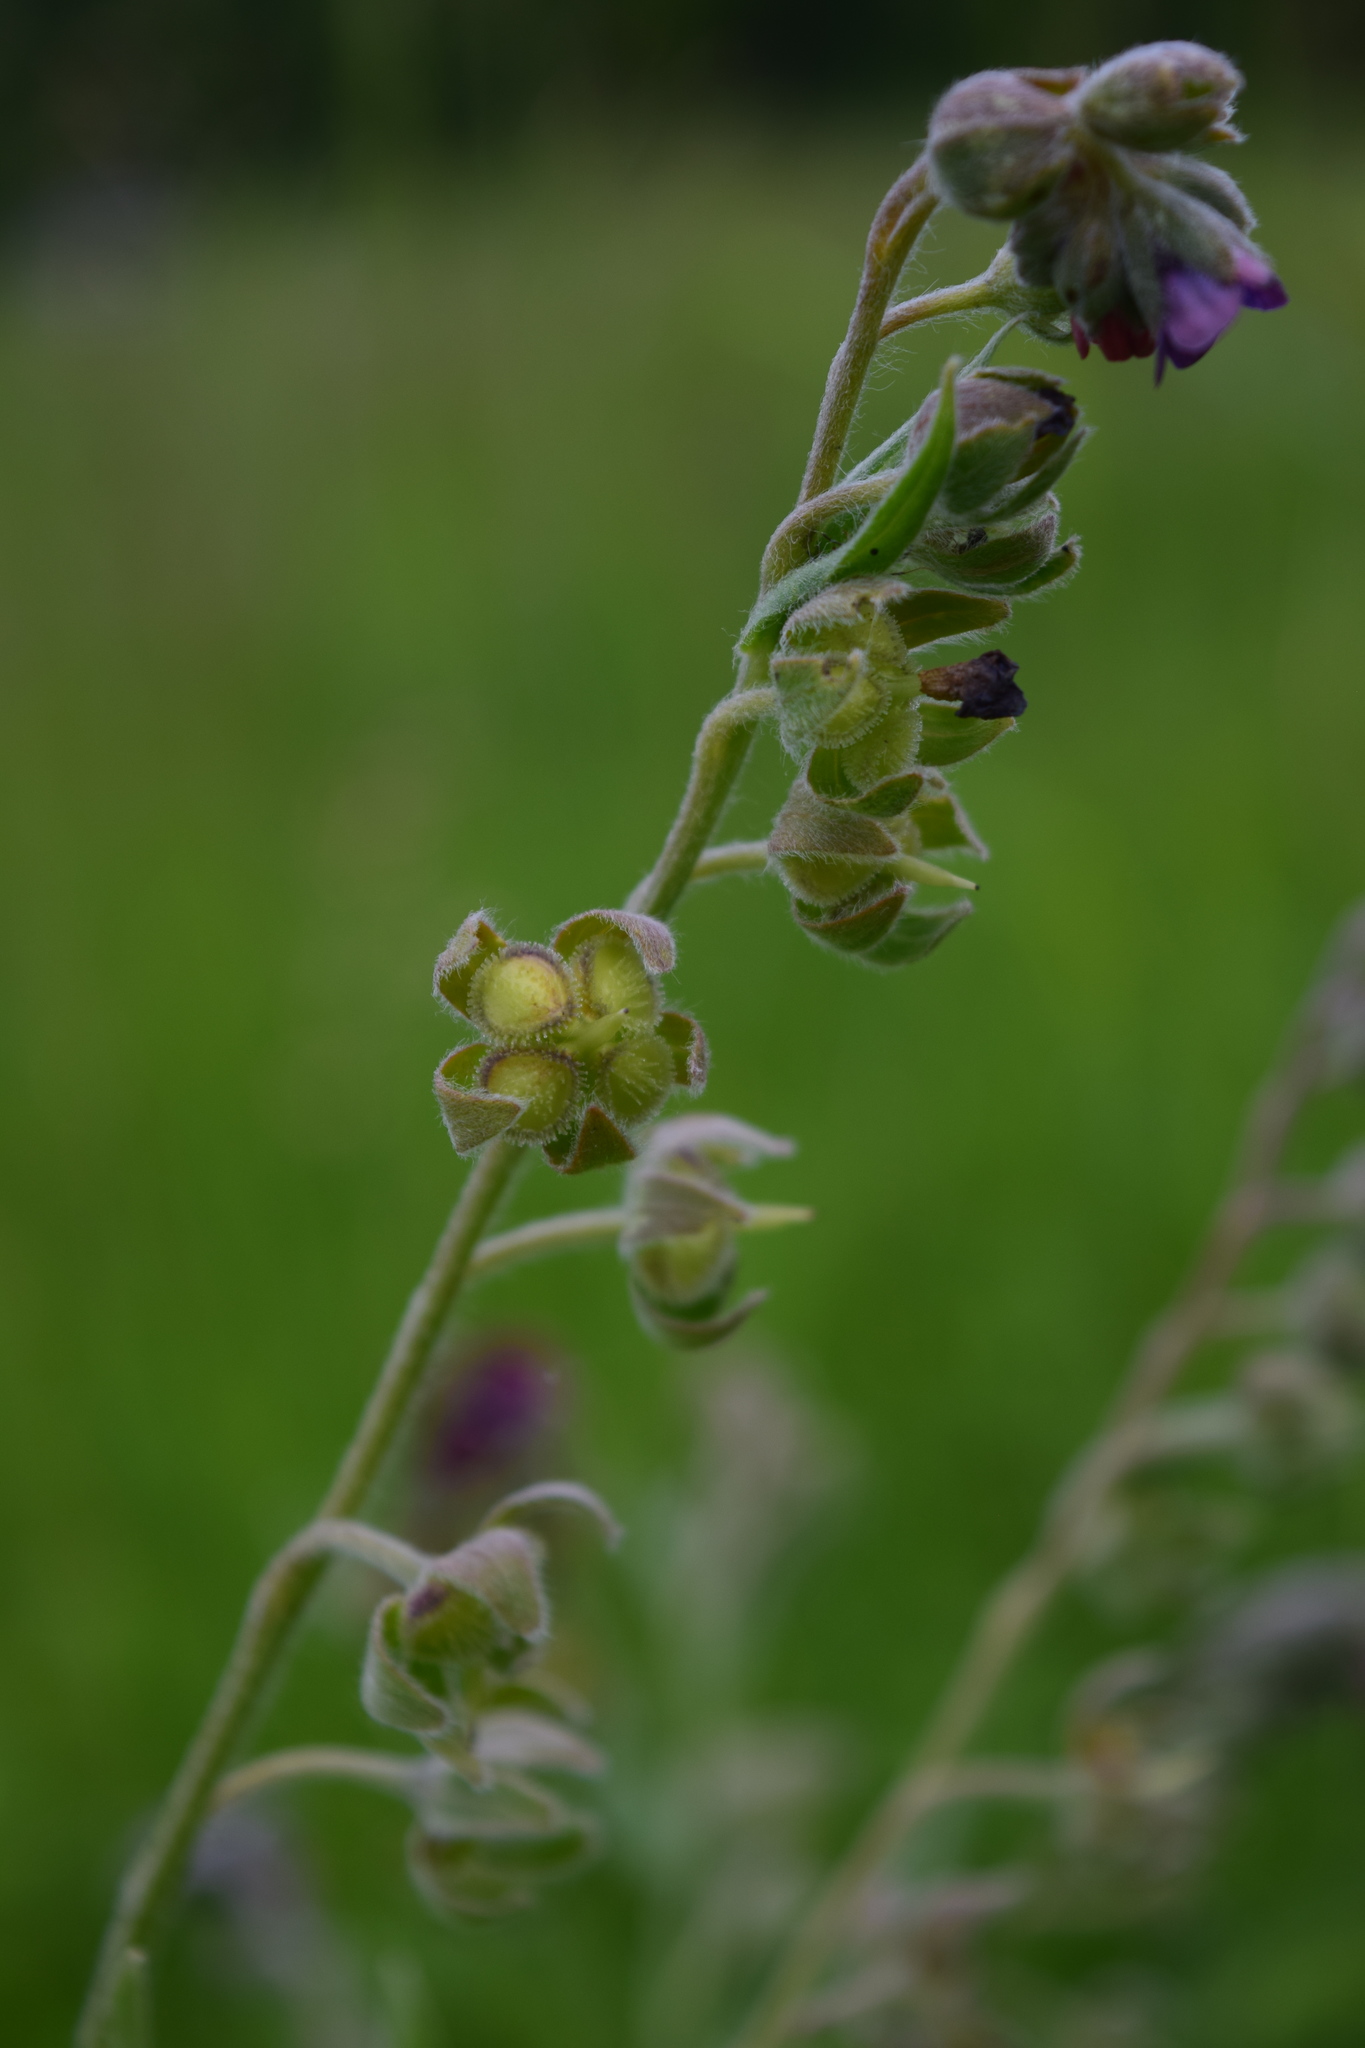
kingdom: Plantae
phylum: Tracheophyta
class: Magnoliopsida
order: Boraginales
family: Boraginaceae
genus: Cynoglossum
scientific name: Cynoglossum officinale
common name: Hound's-tongue
